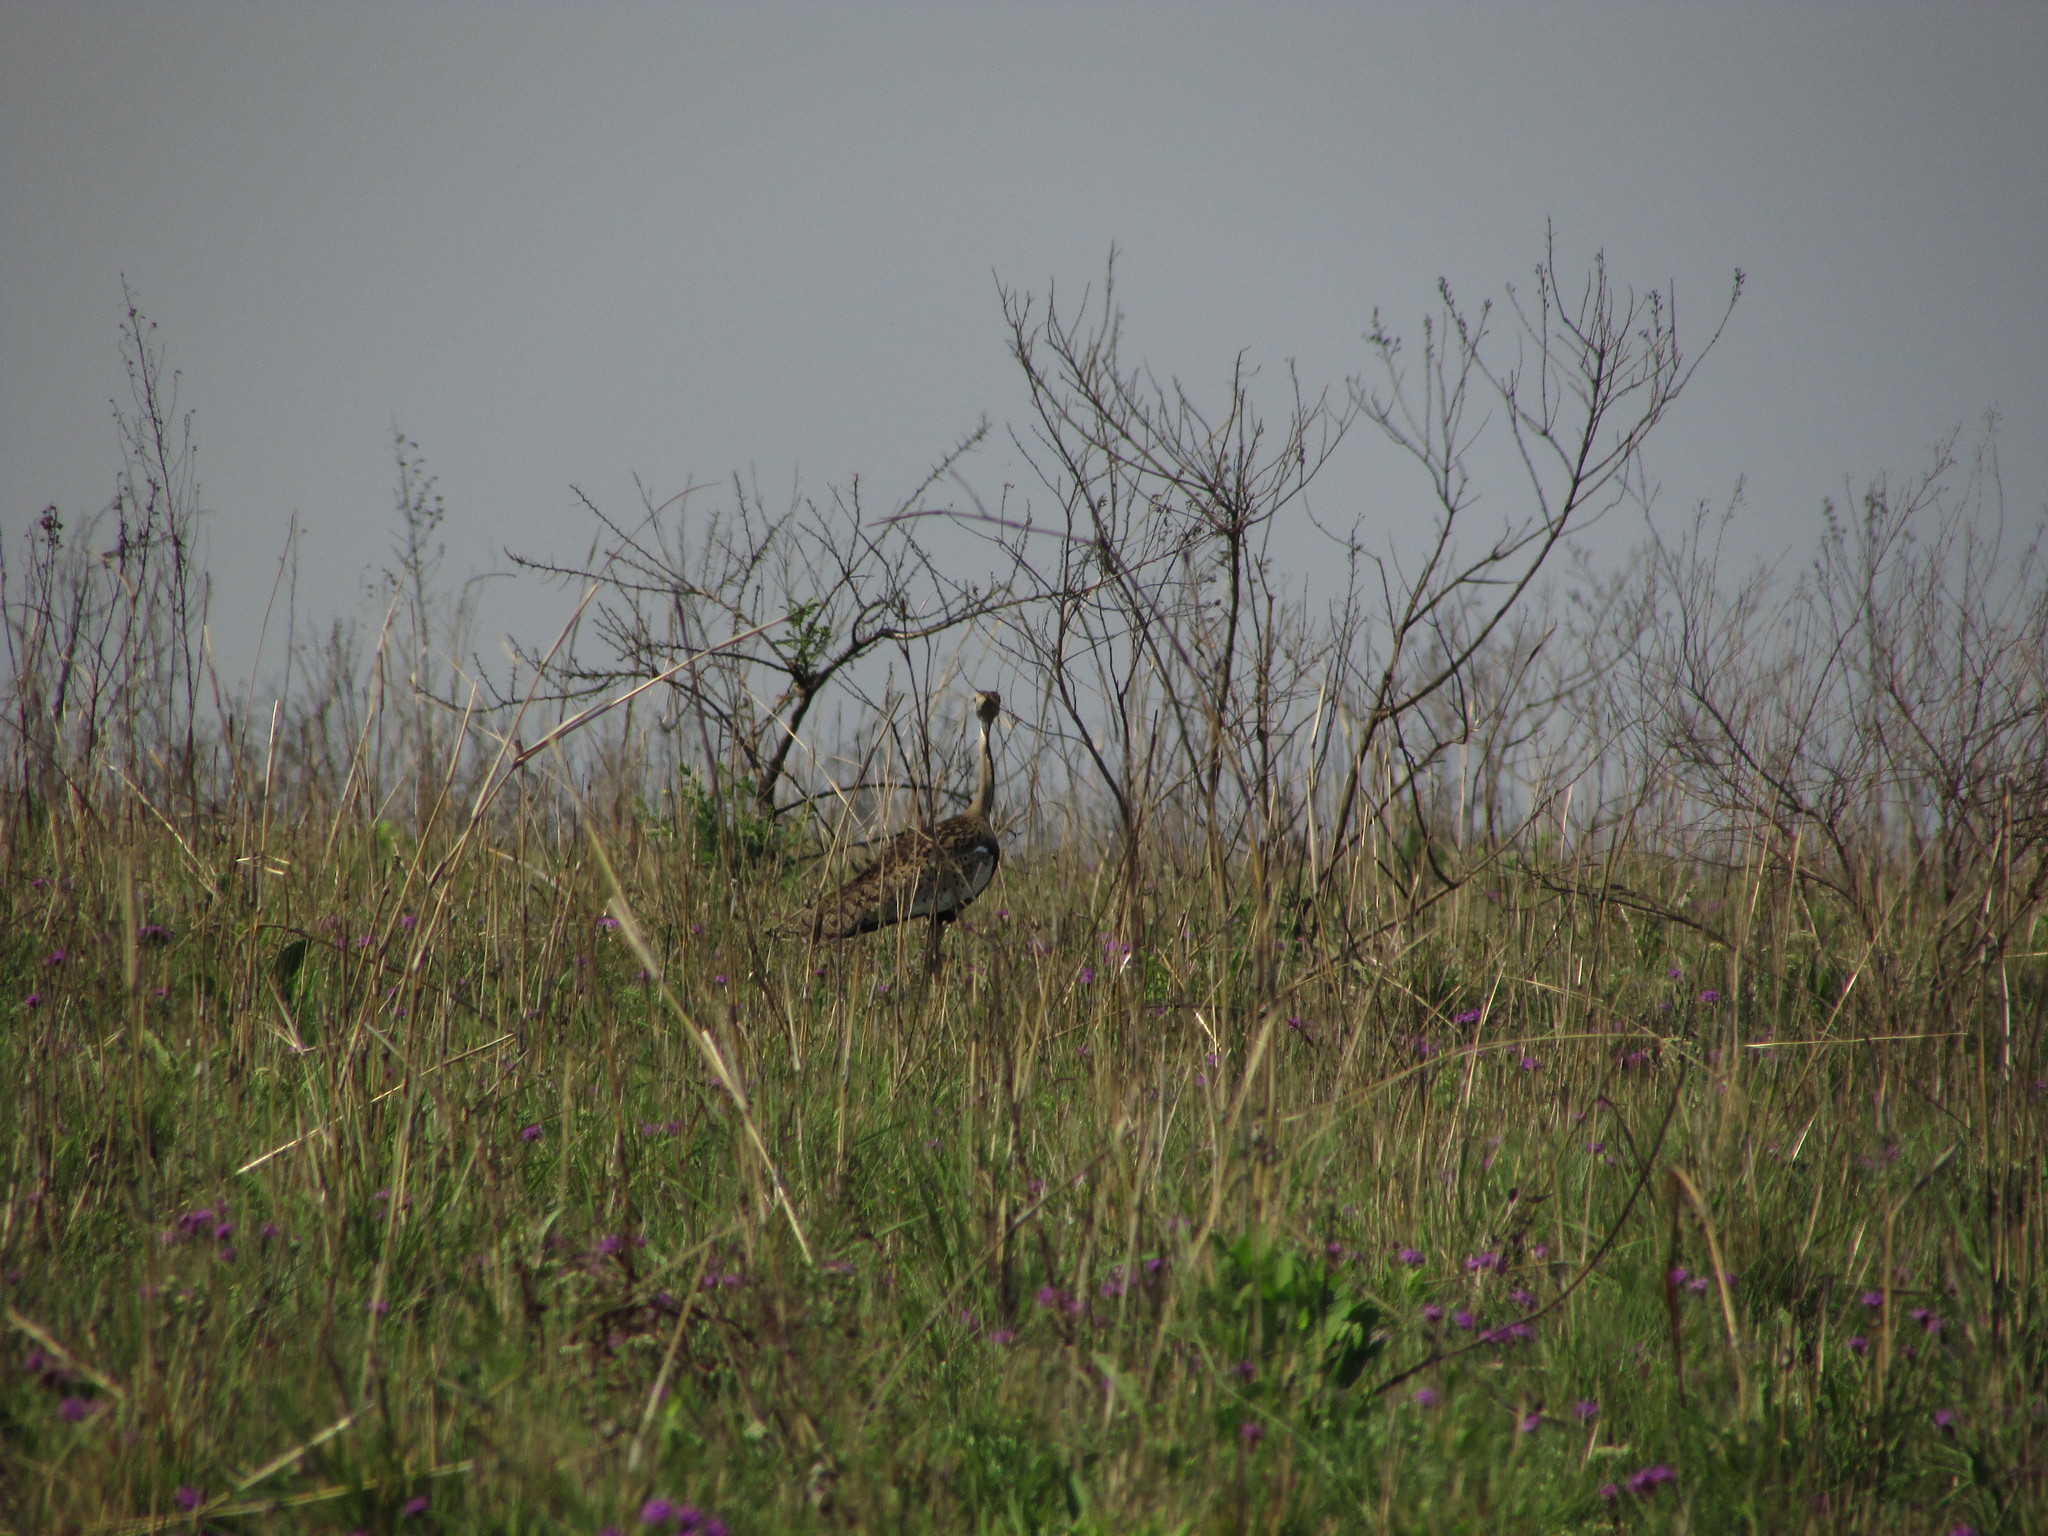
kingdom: Animalia
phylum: Chordata
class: Aves
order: Otidiformes
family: Otididae
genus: Lissotis
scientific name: Lissotis melanogaster
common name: Black-bellied bustard
